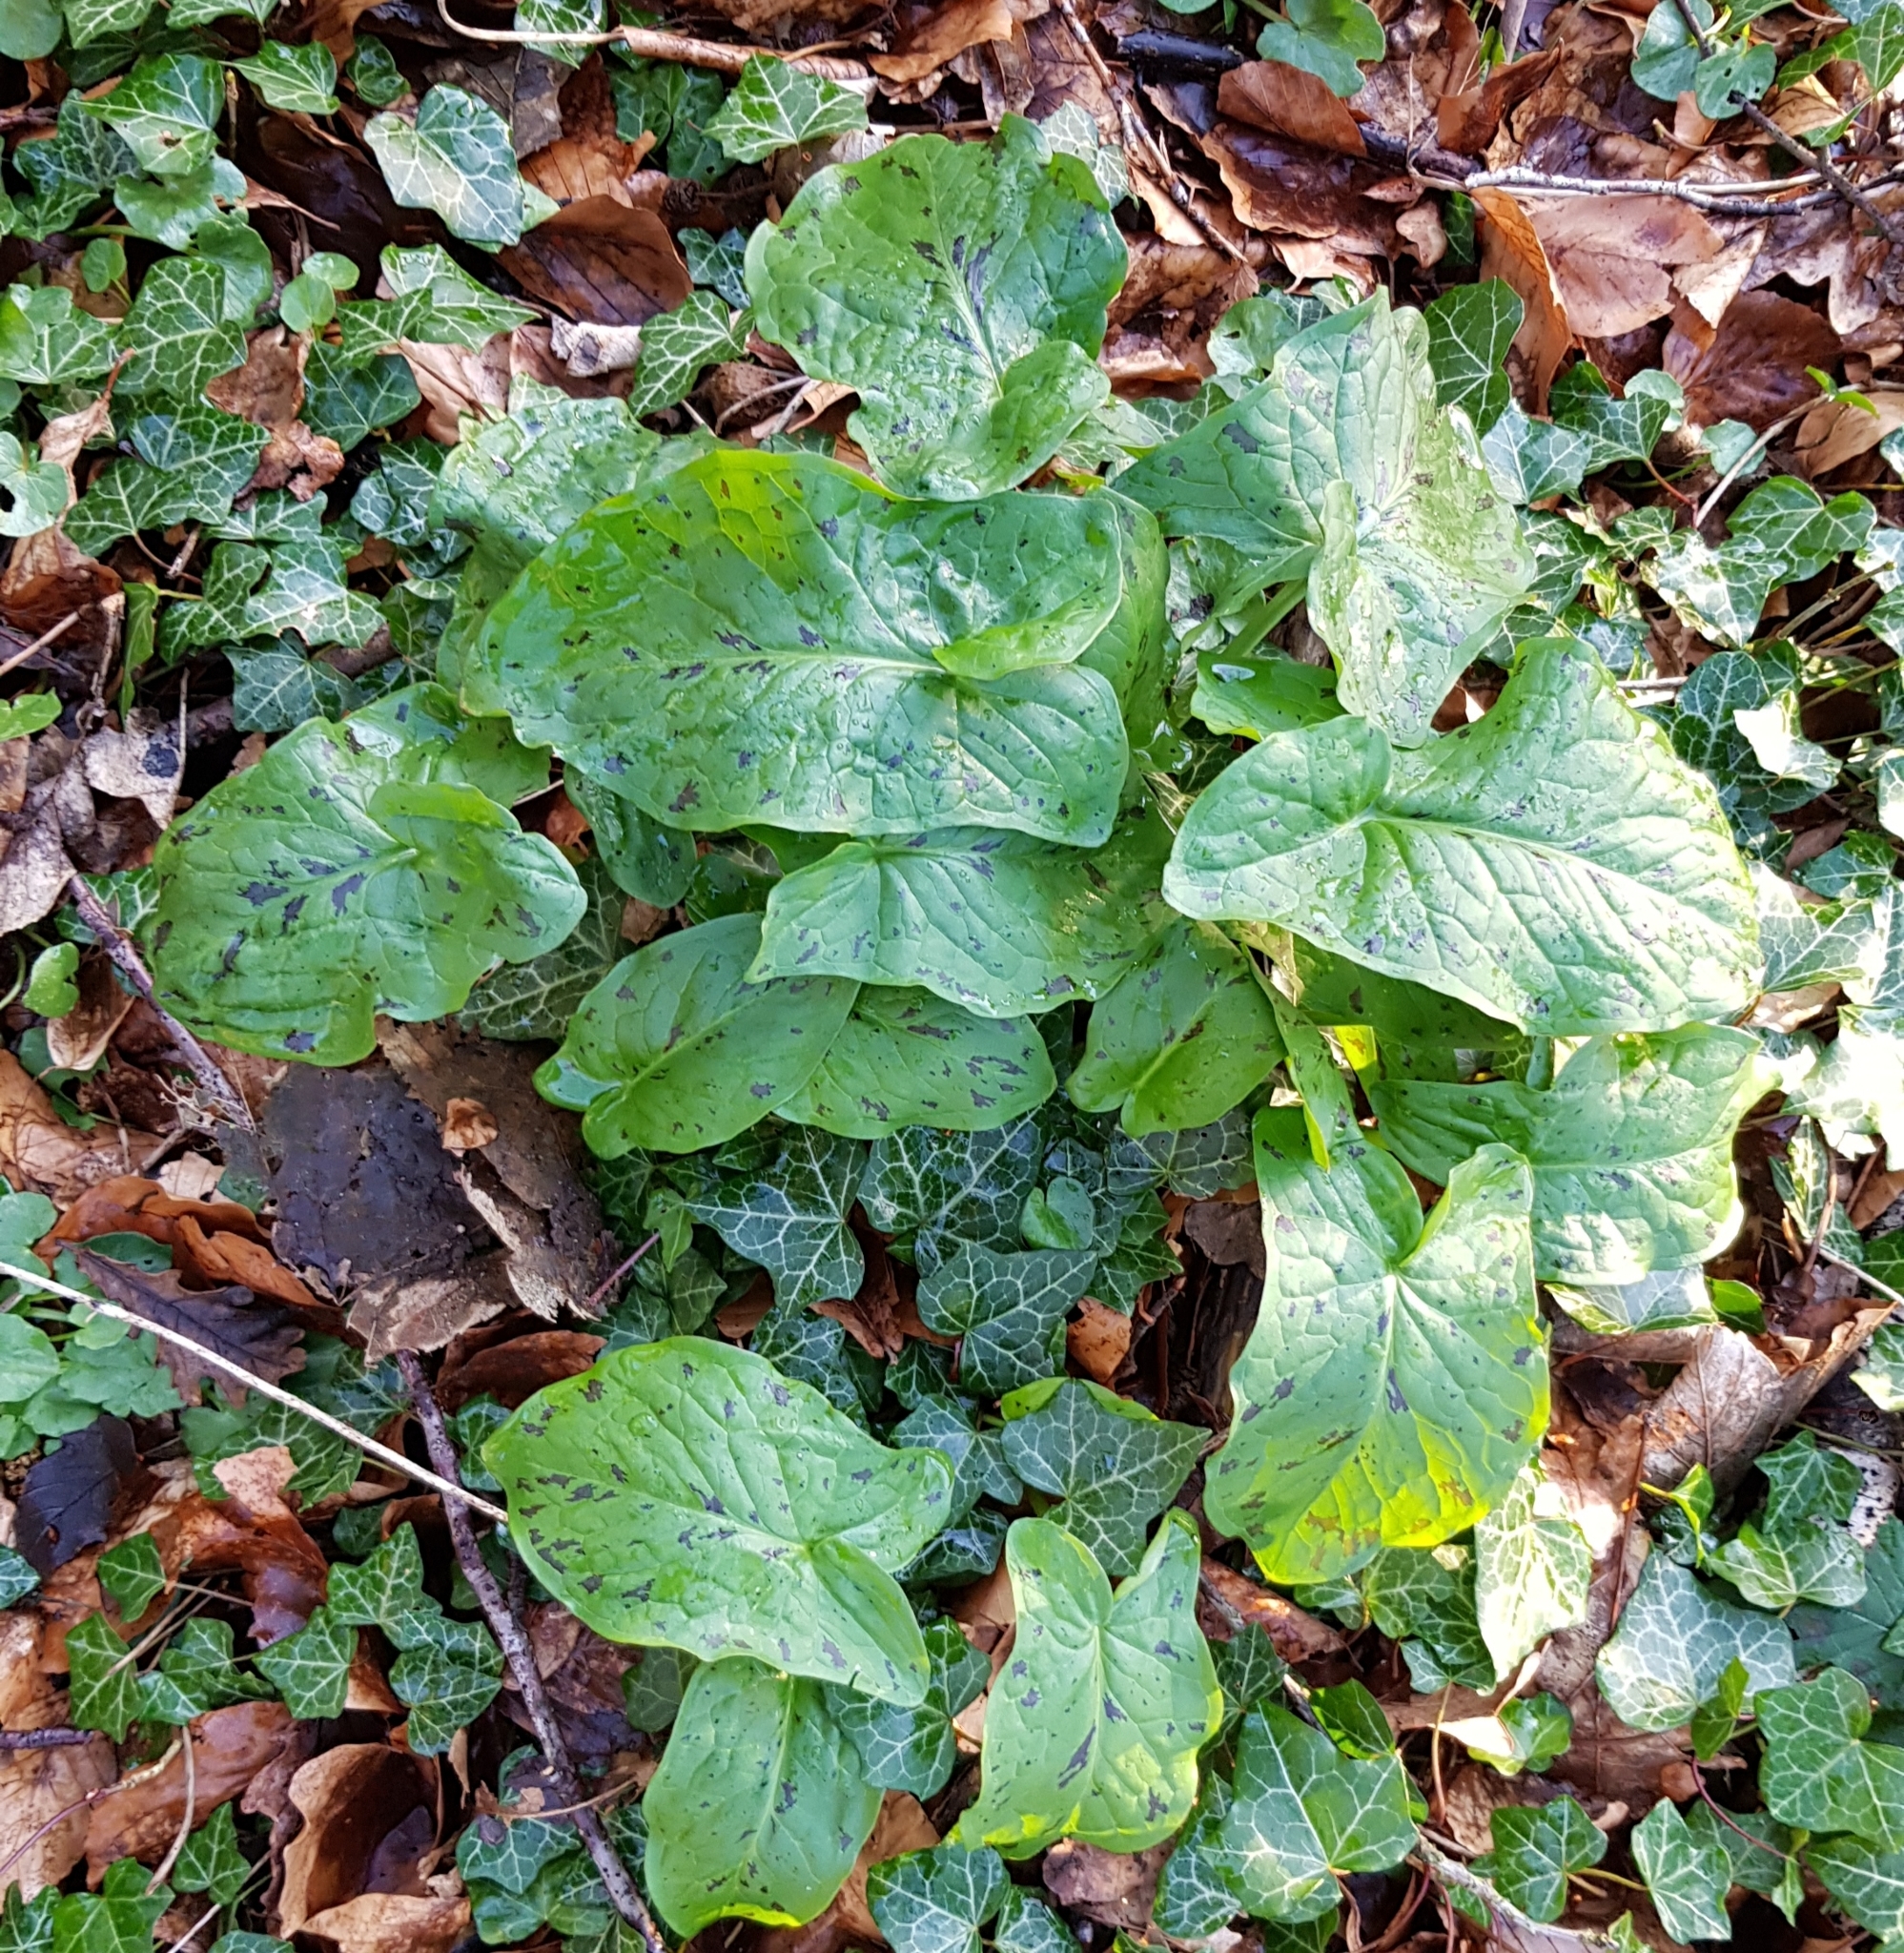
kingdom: Plantae
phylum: Tracheophyta
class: Liliopsida
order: Alismatales
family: Araceae
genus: Arum
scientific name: Arum maculatum
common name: Lords-and-ladies
